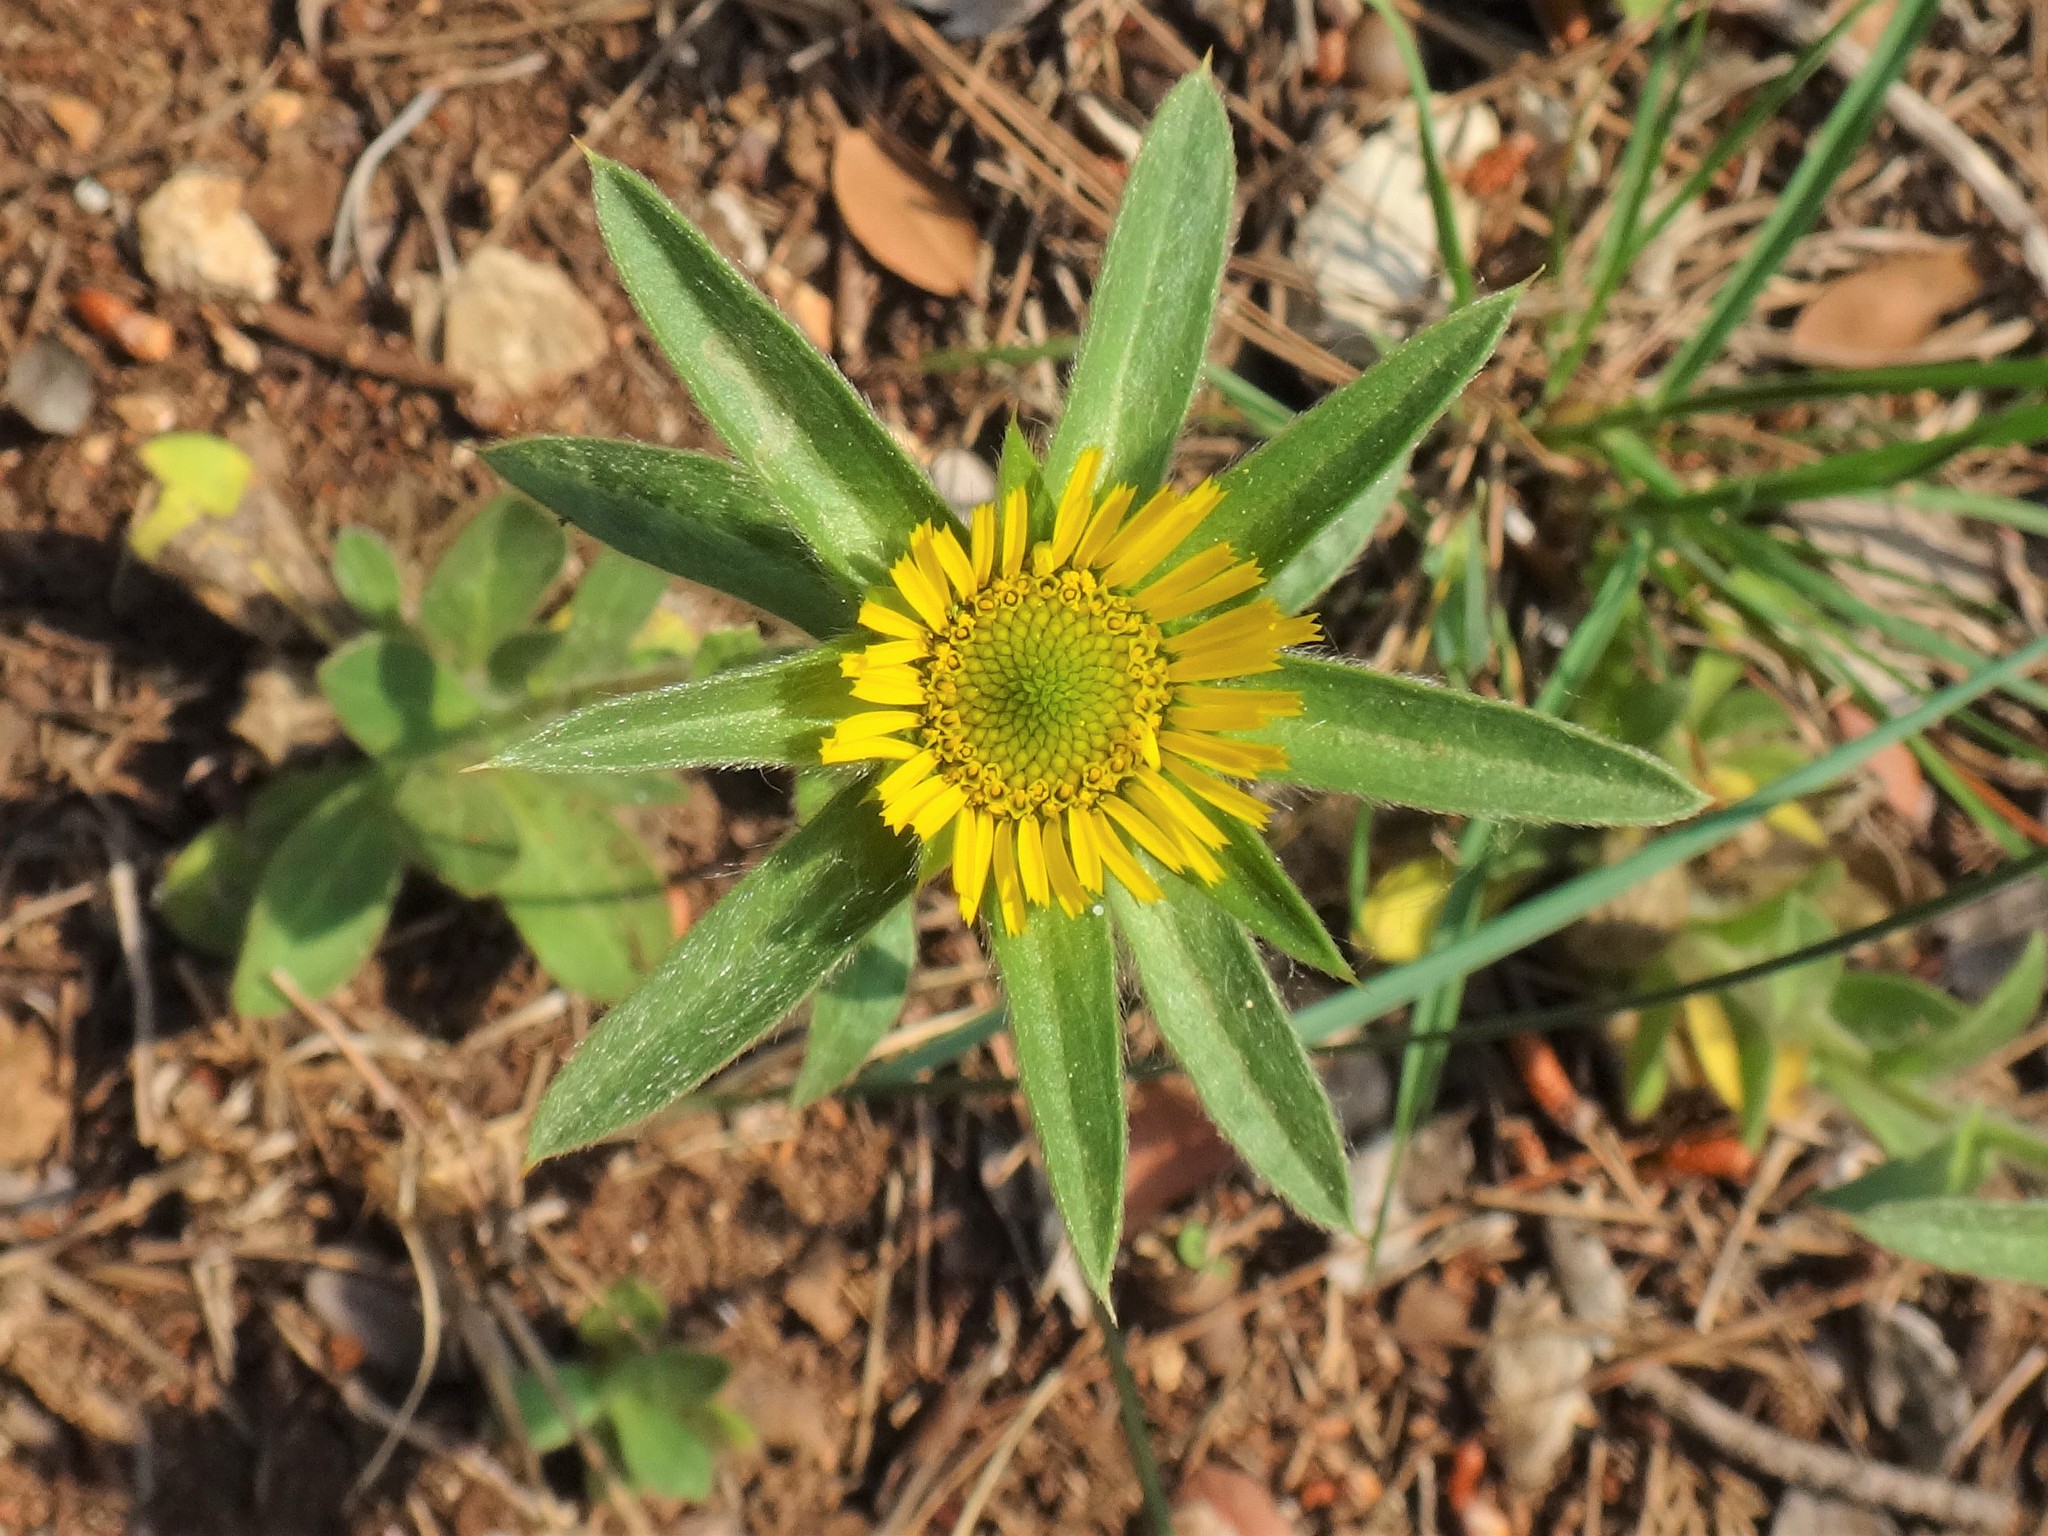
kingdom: Plantae
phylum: Tracheophyta
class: Magnoliopsida
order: Asterales
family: Asteraceae
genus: Pallenis
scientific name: Pallenis spinosa
